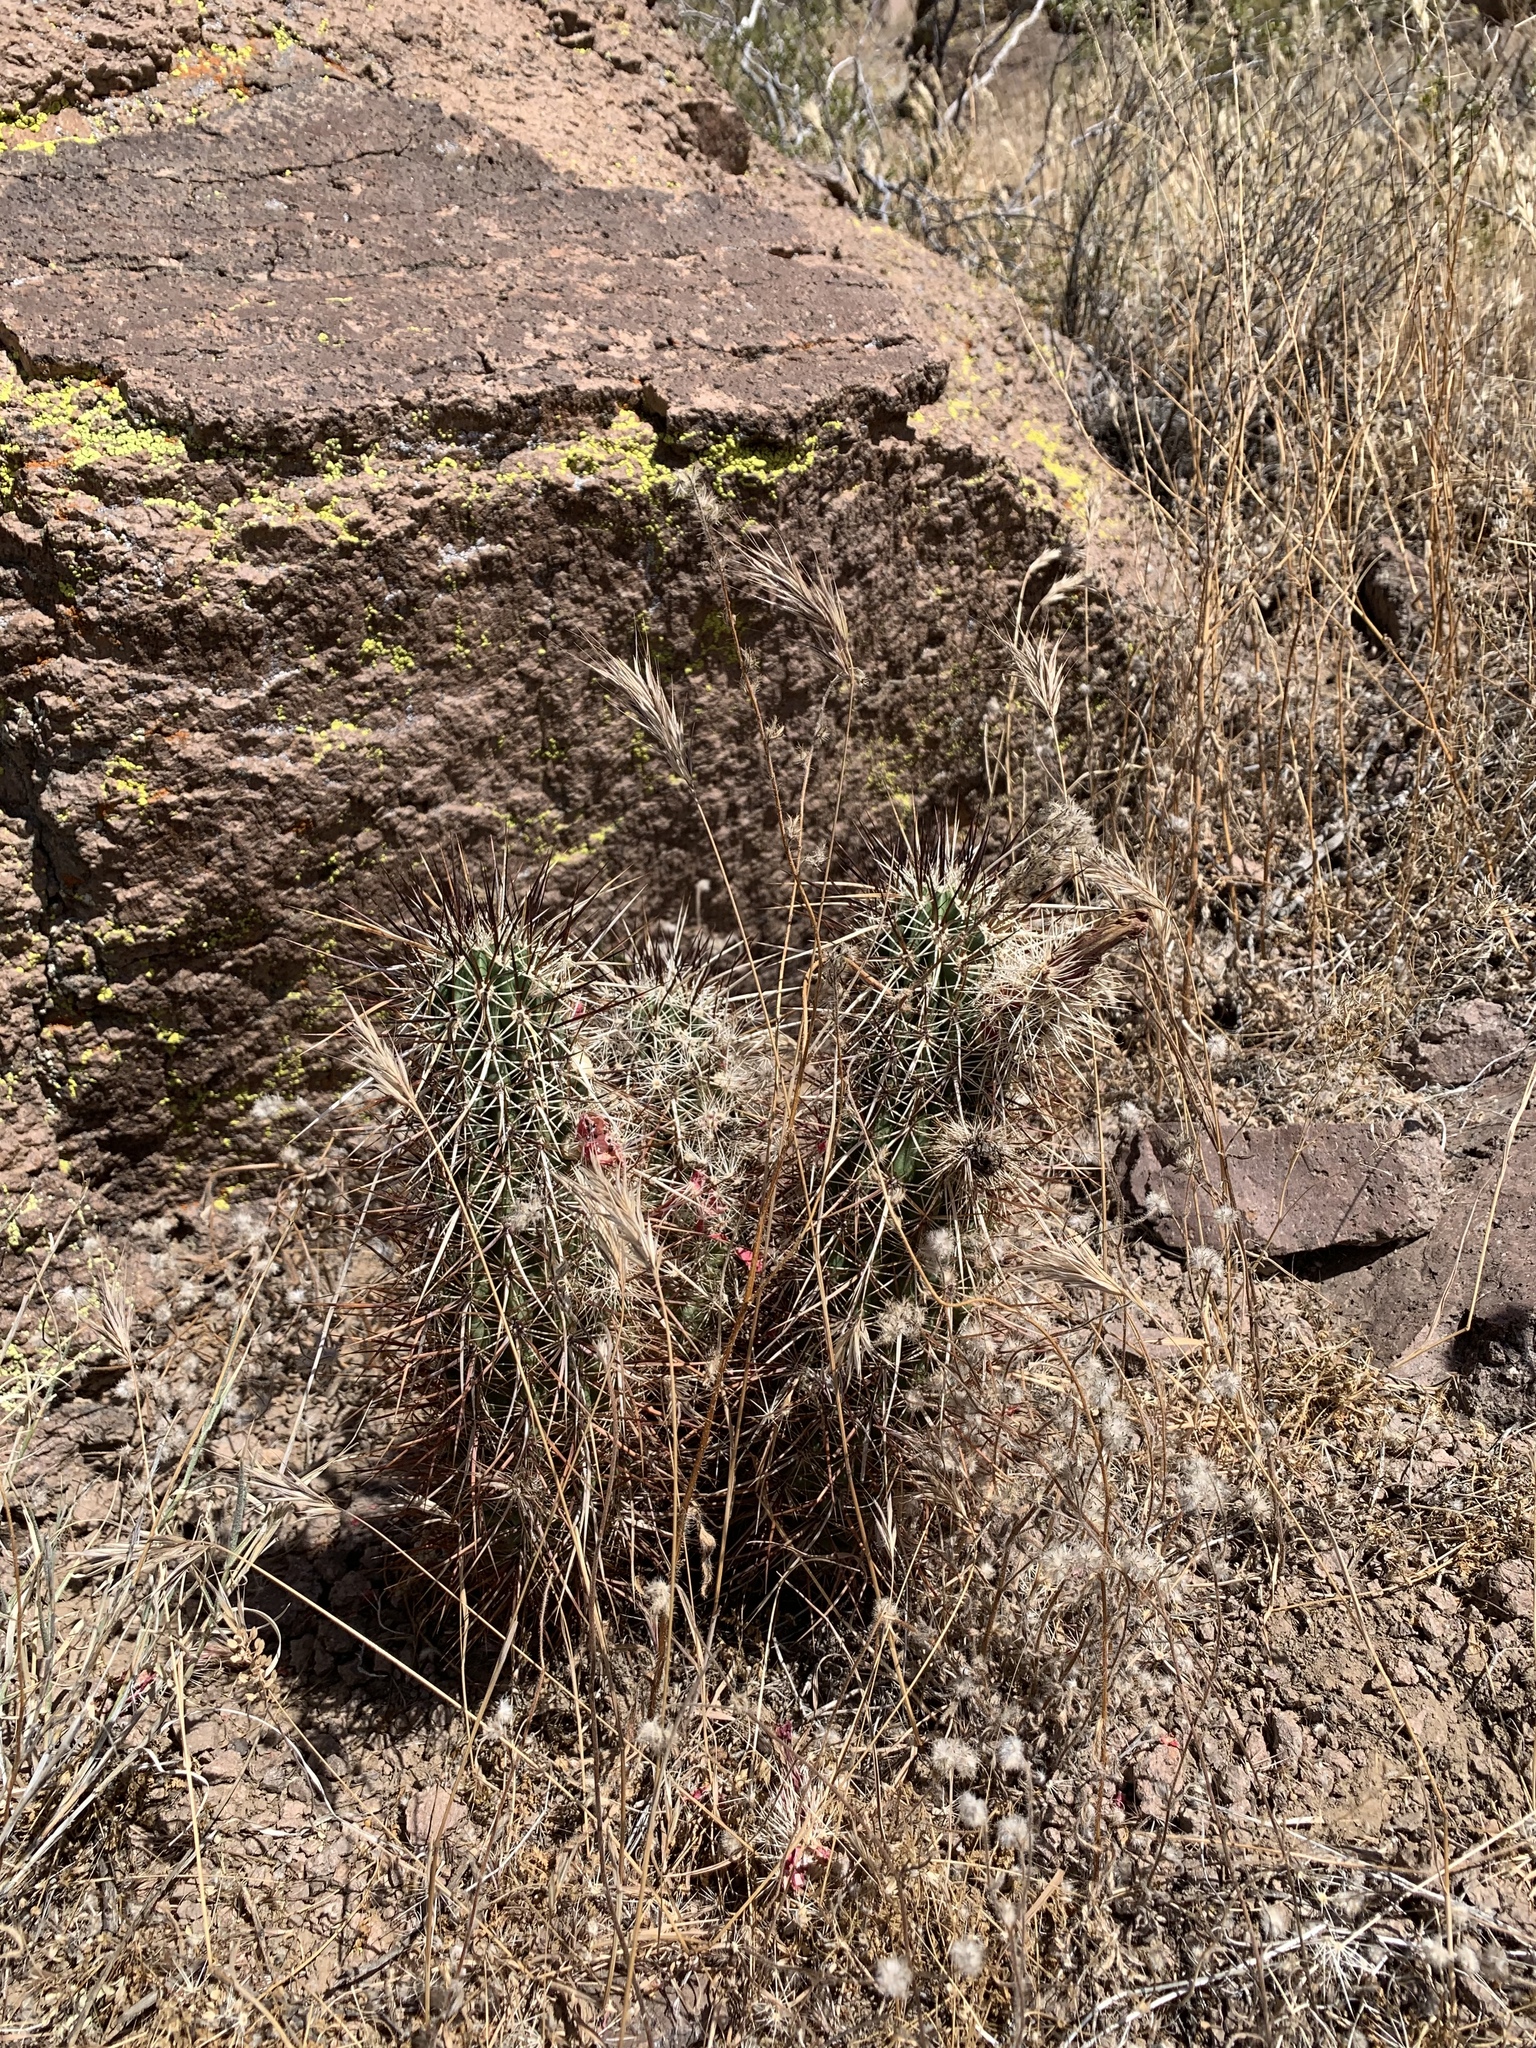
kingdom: Plantae
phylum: Tracheophyta
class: Magnoliopsida
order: Caryophyllales
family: Cactaceae
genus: Echinocereus
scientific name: Echinocereus engelmannii
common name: Engelmann's hedgehog cactus
